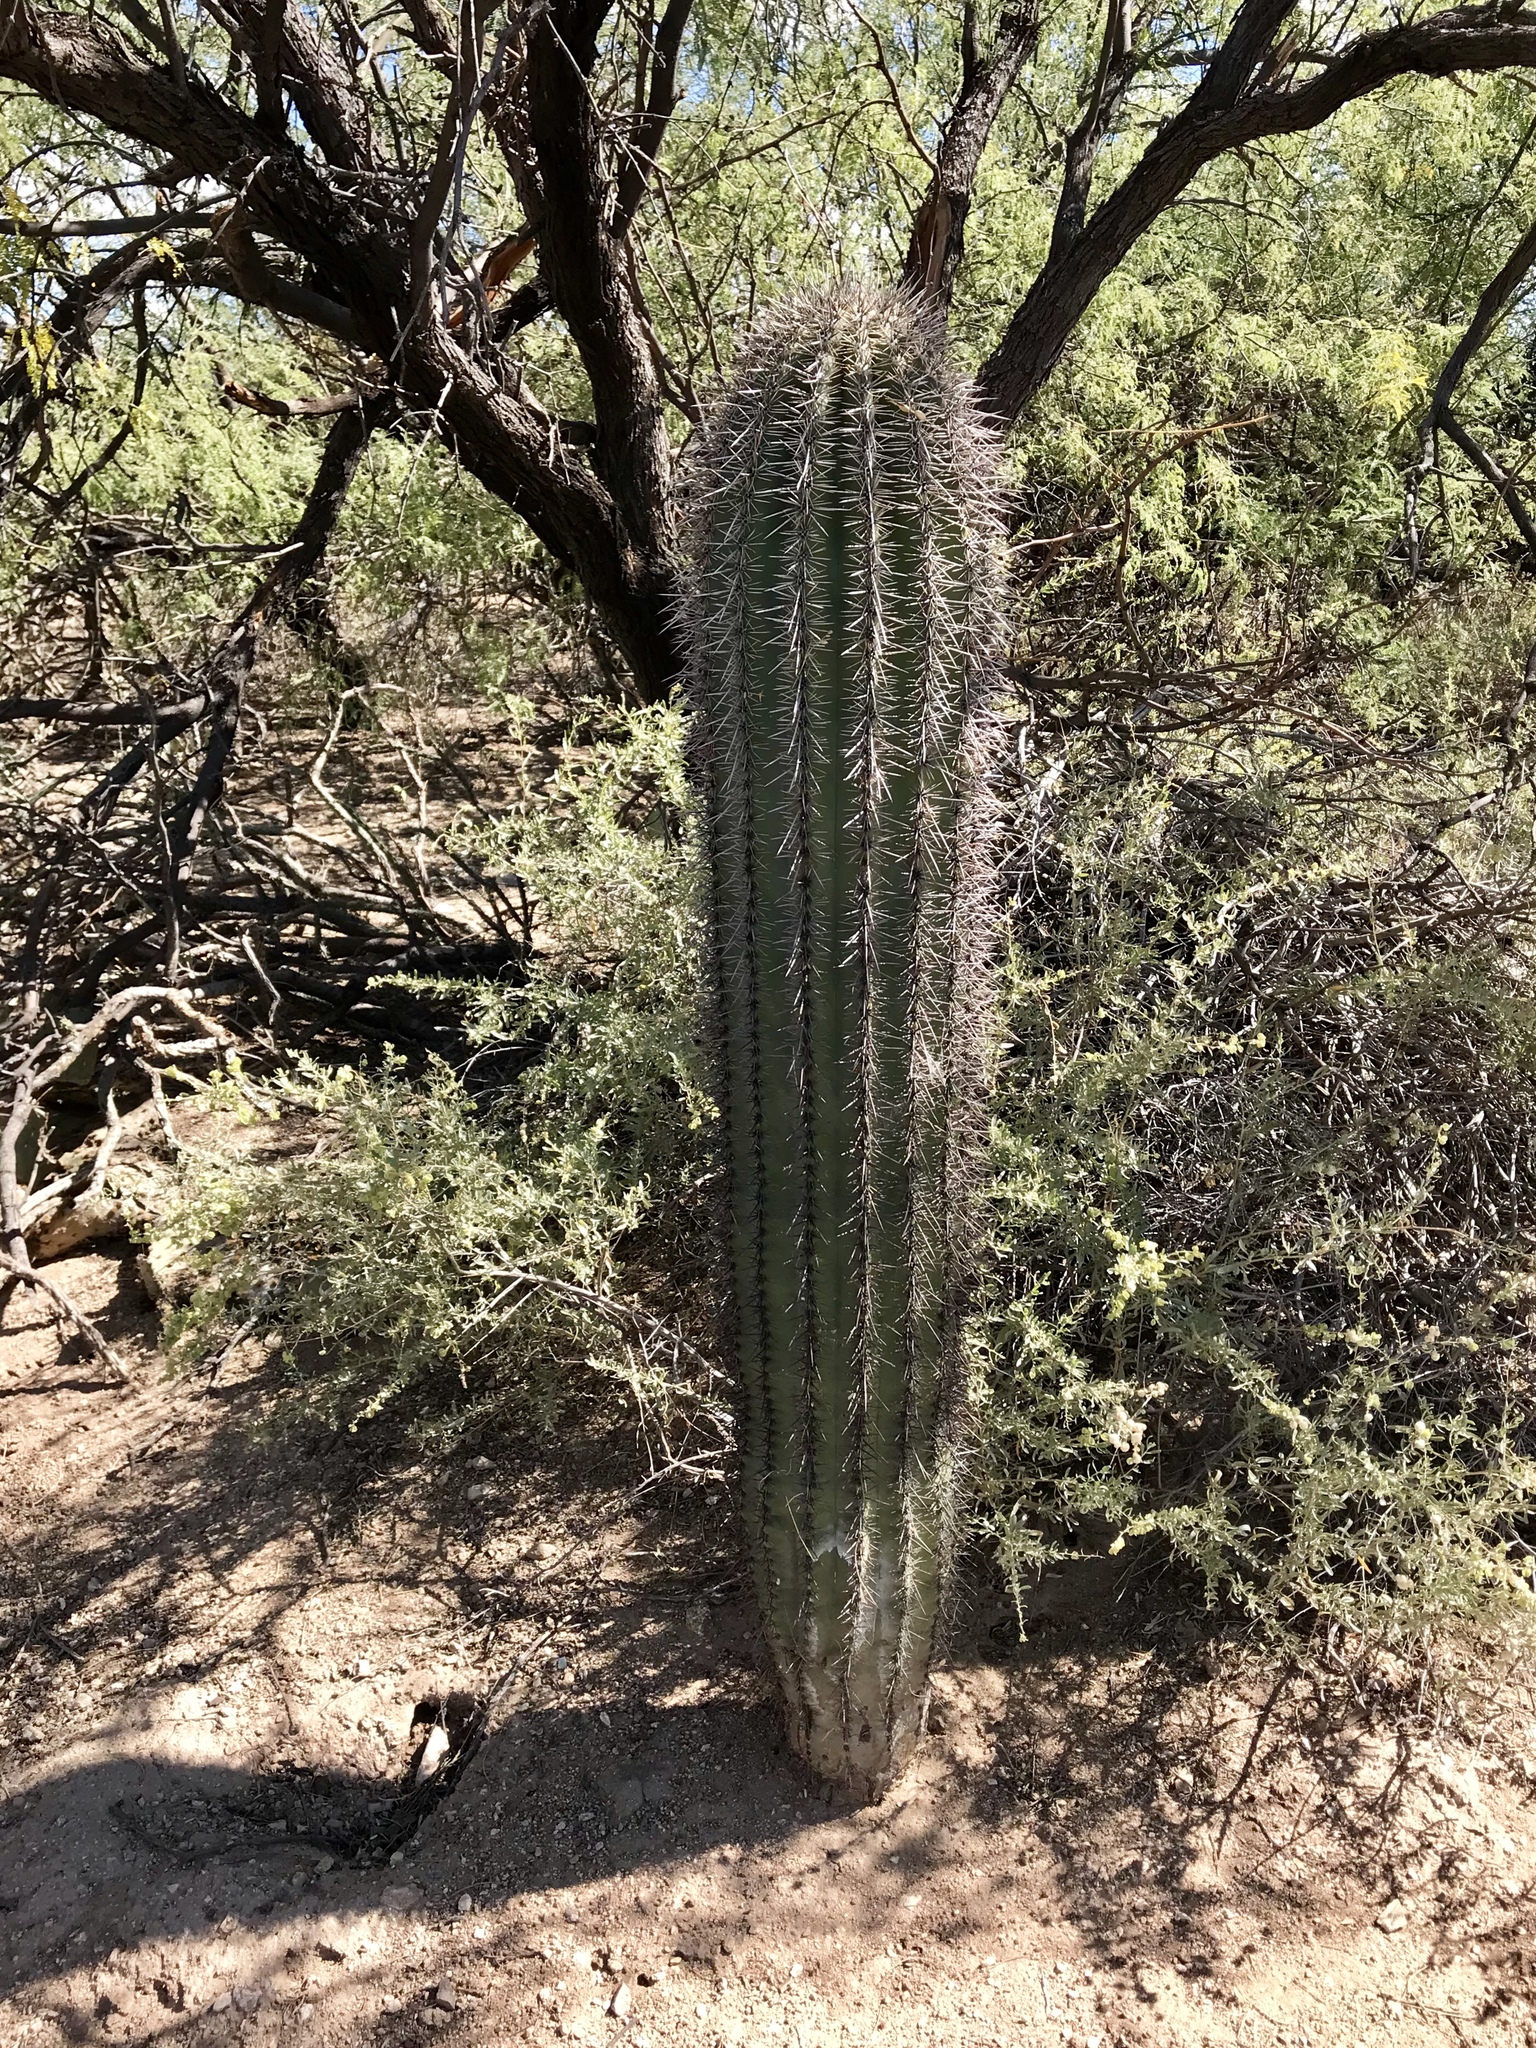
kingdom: Plantae
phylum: Tracheophyta
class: Magnoliopsida
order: Caryophyllales
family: Cactaceae
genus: Carnegiea
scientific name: Carnegiea gigantea
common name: Saguaro
